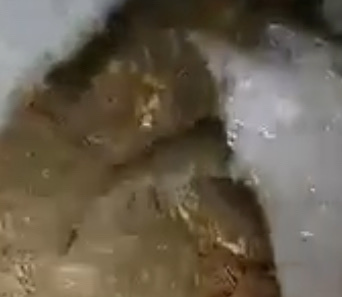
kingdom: Animalia
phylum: Chordata
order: Salmoniformes
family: Salmonidae
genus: Salvelinus
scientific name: Salvelinus fontinalis
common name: Brook trout
